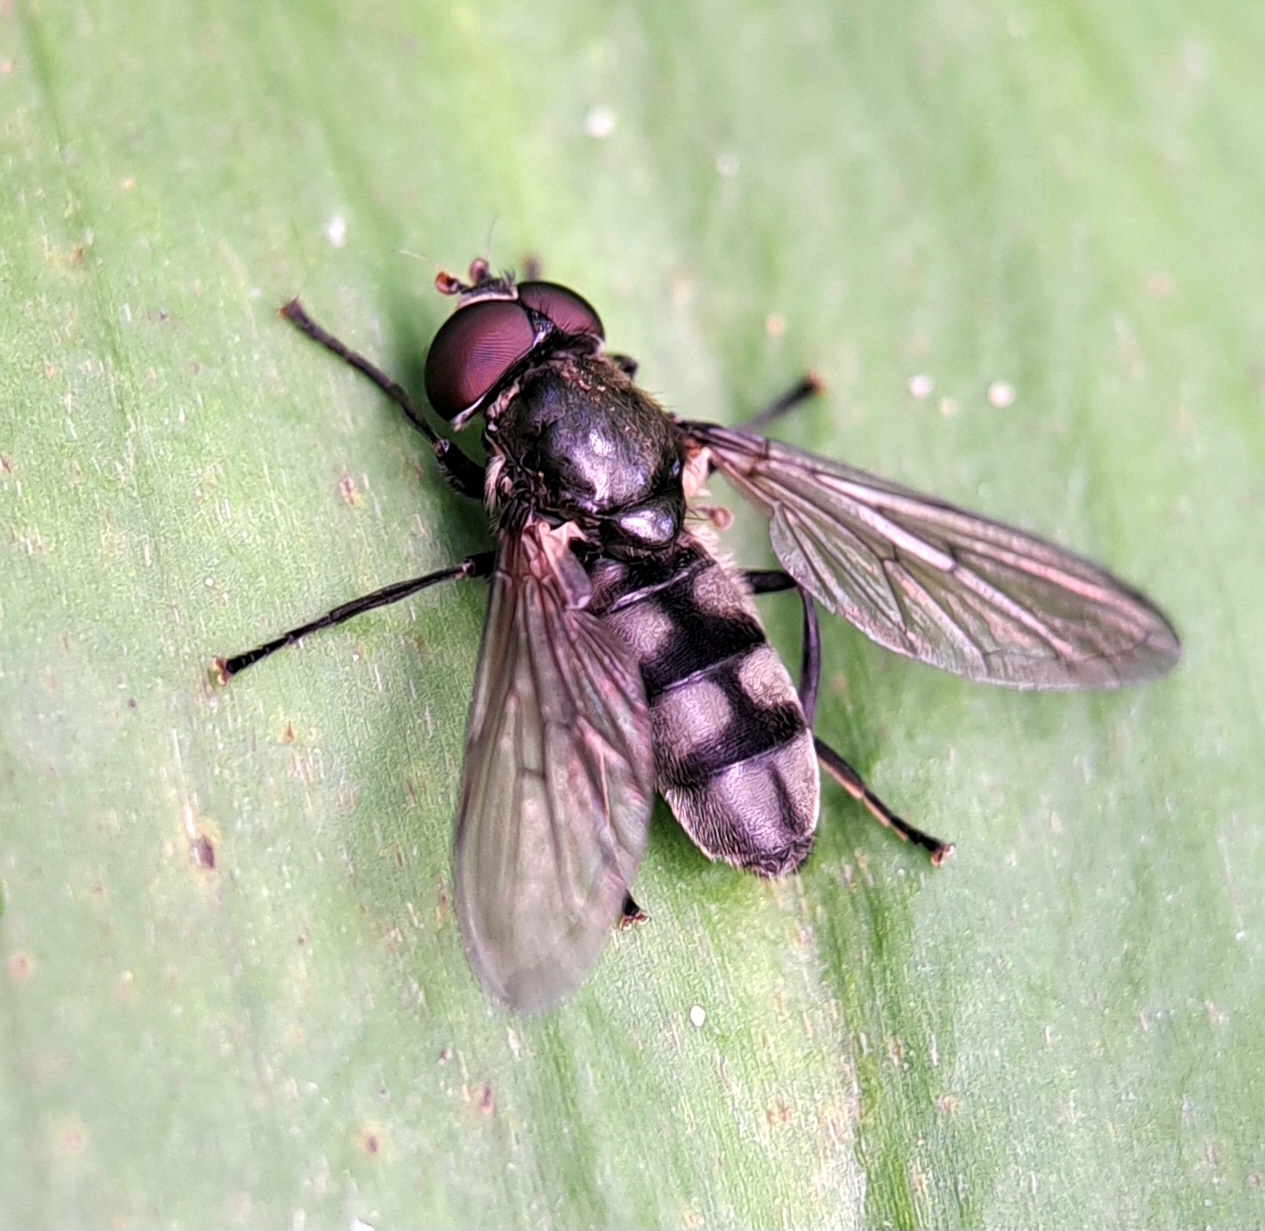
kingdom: Animalia
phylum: Arthropoda
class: Insecta
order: Diptera
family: Syrphidae
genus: Portevinia
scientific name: Portevinia maculata
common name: Ramson's hoverfly
